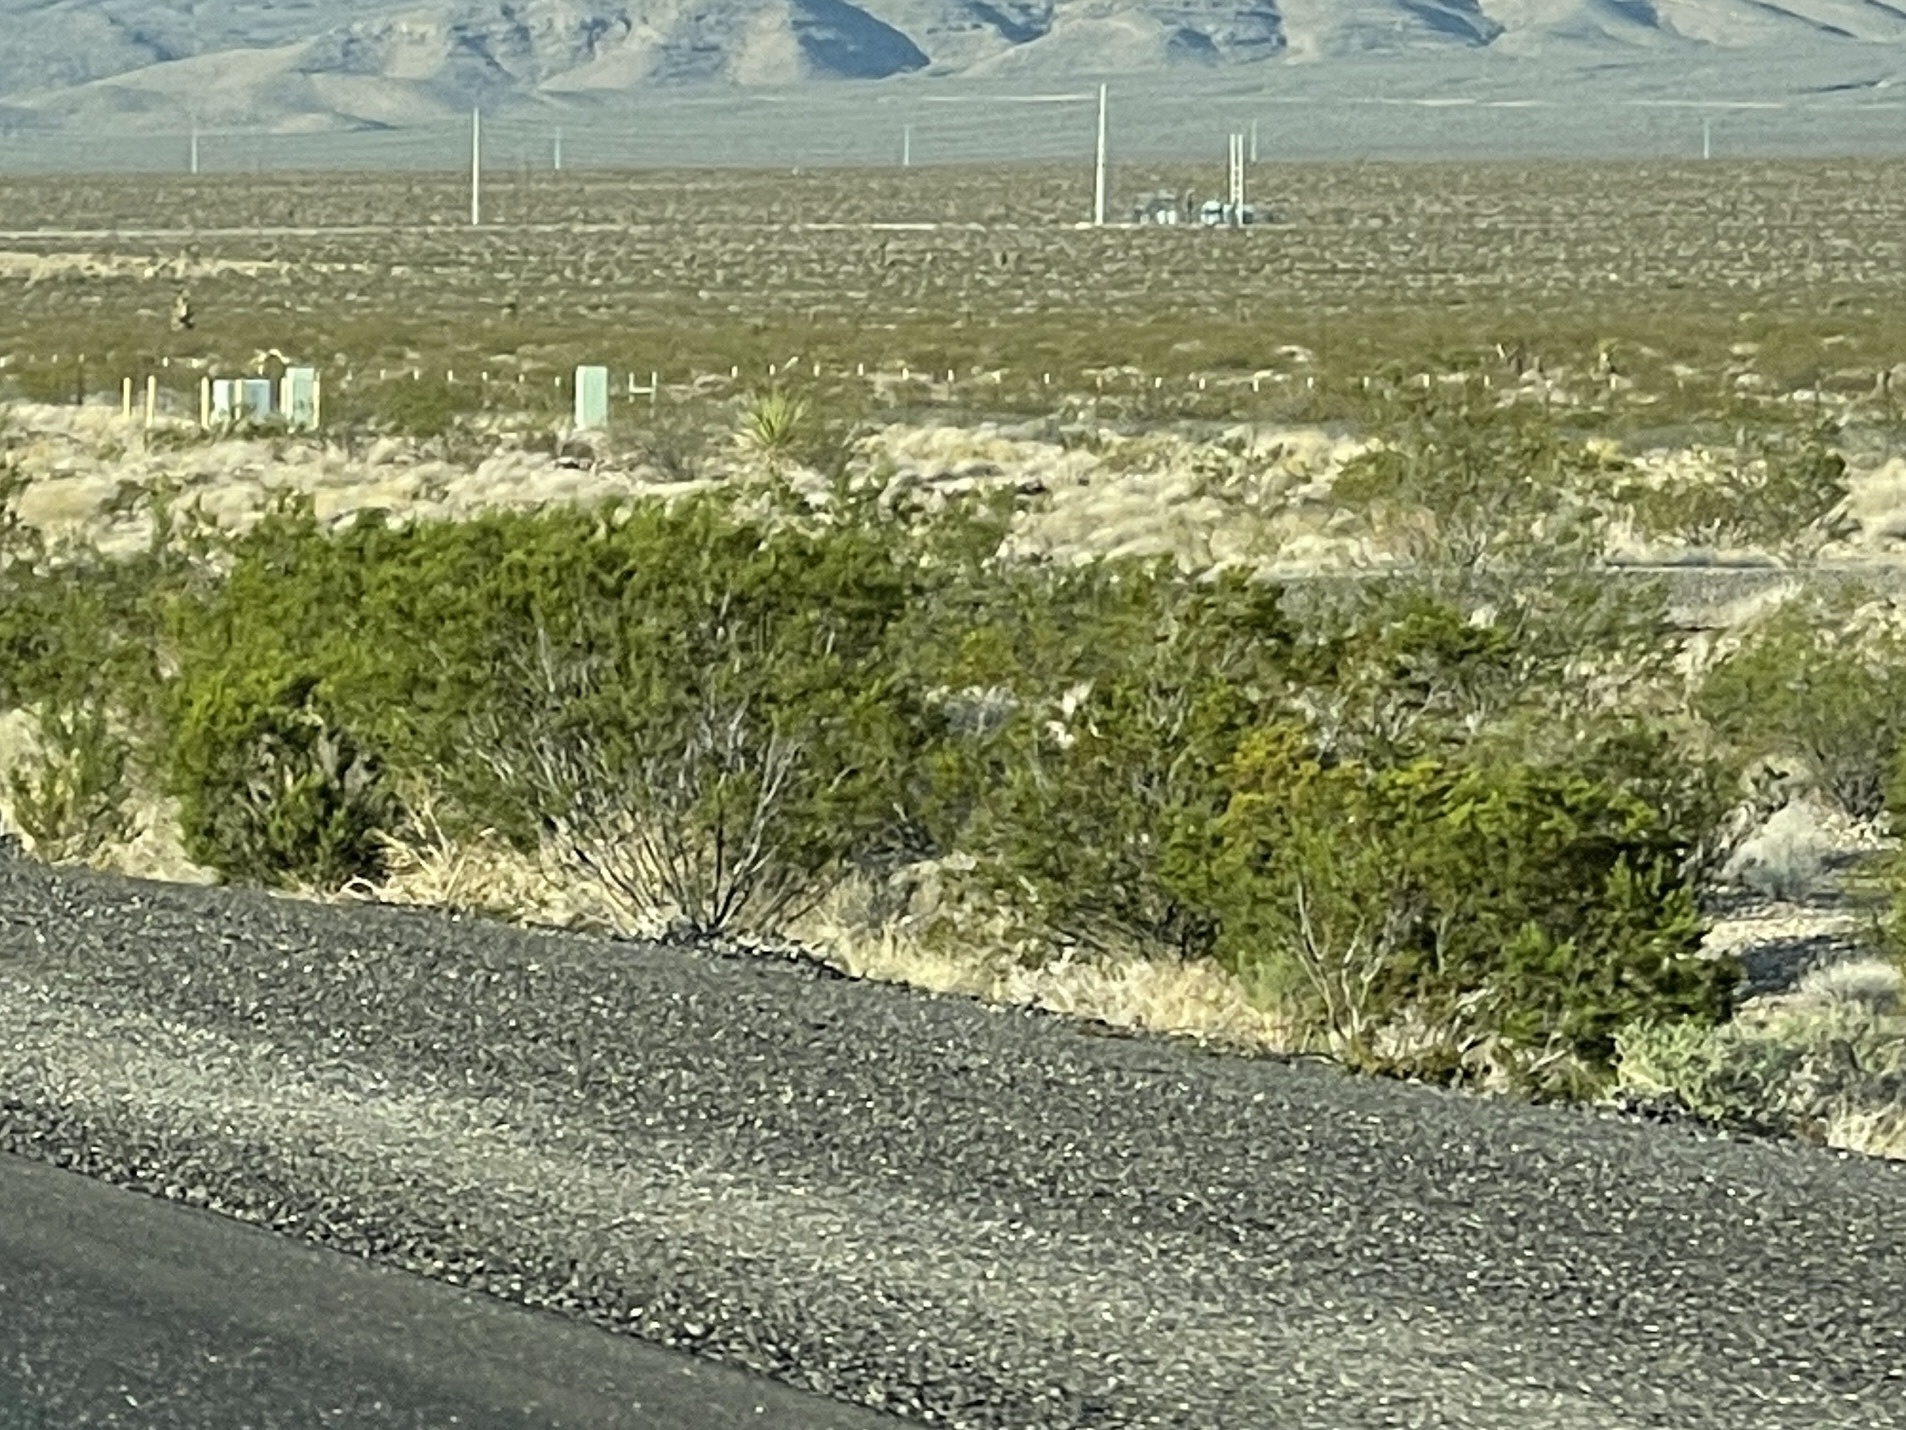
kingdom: Plantae
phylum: Tracheophyta
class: Magnoliopsida
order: Zygophyllales
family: Zygophyllaceae
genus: Larrea
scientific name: Larrea tridentata
